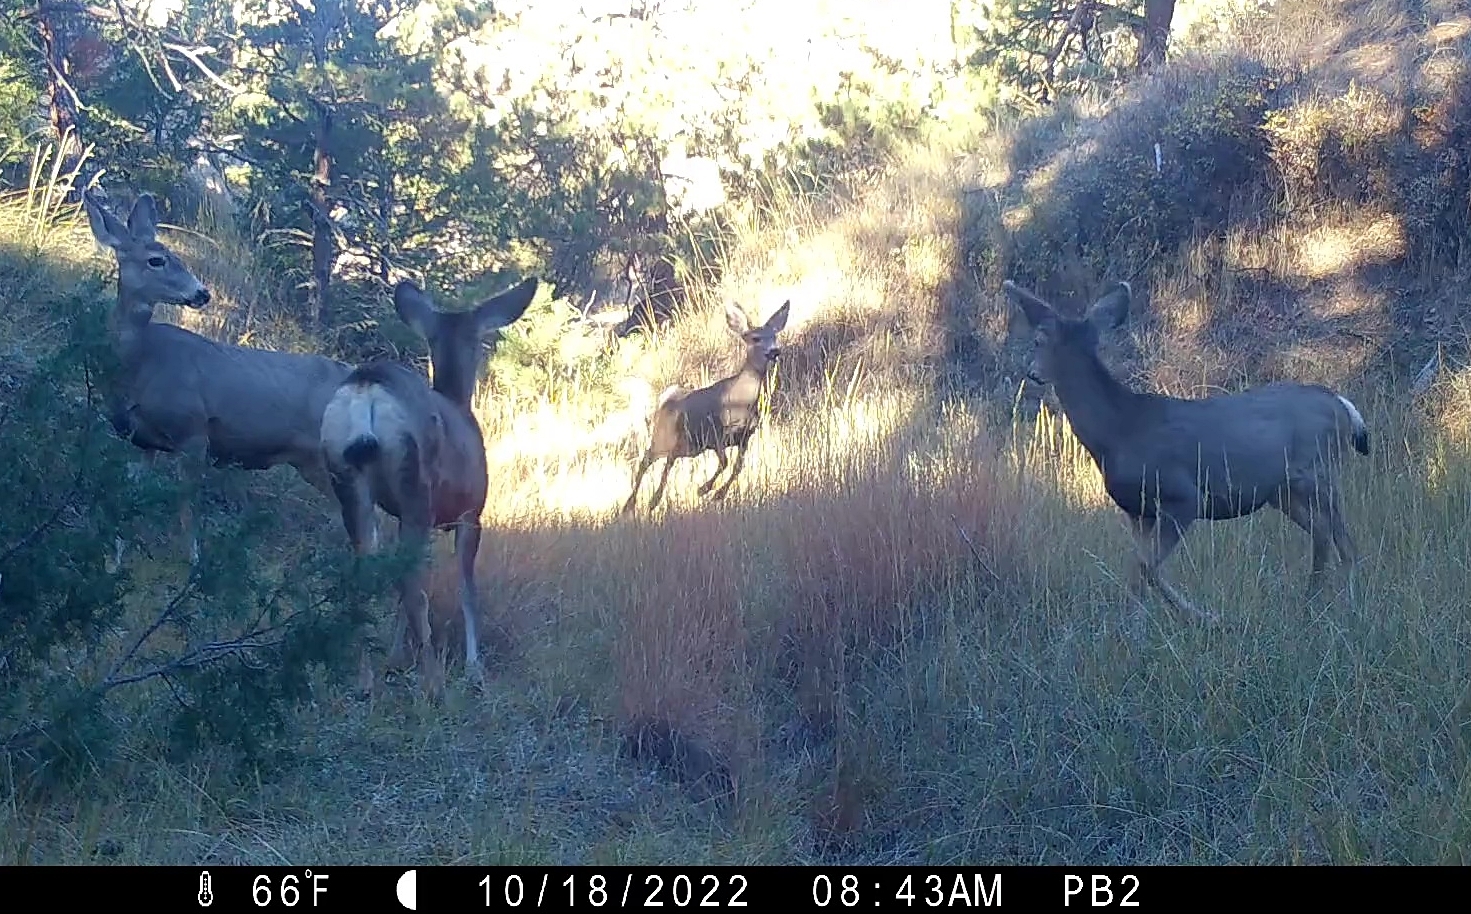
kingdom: Animalia
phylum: Chordata
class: Mammalia
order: Artiodactyla
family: Cervidae
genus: Odocoileus
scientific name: Odocoileus hemionus
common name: Mule deer
